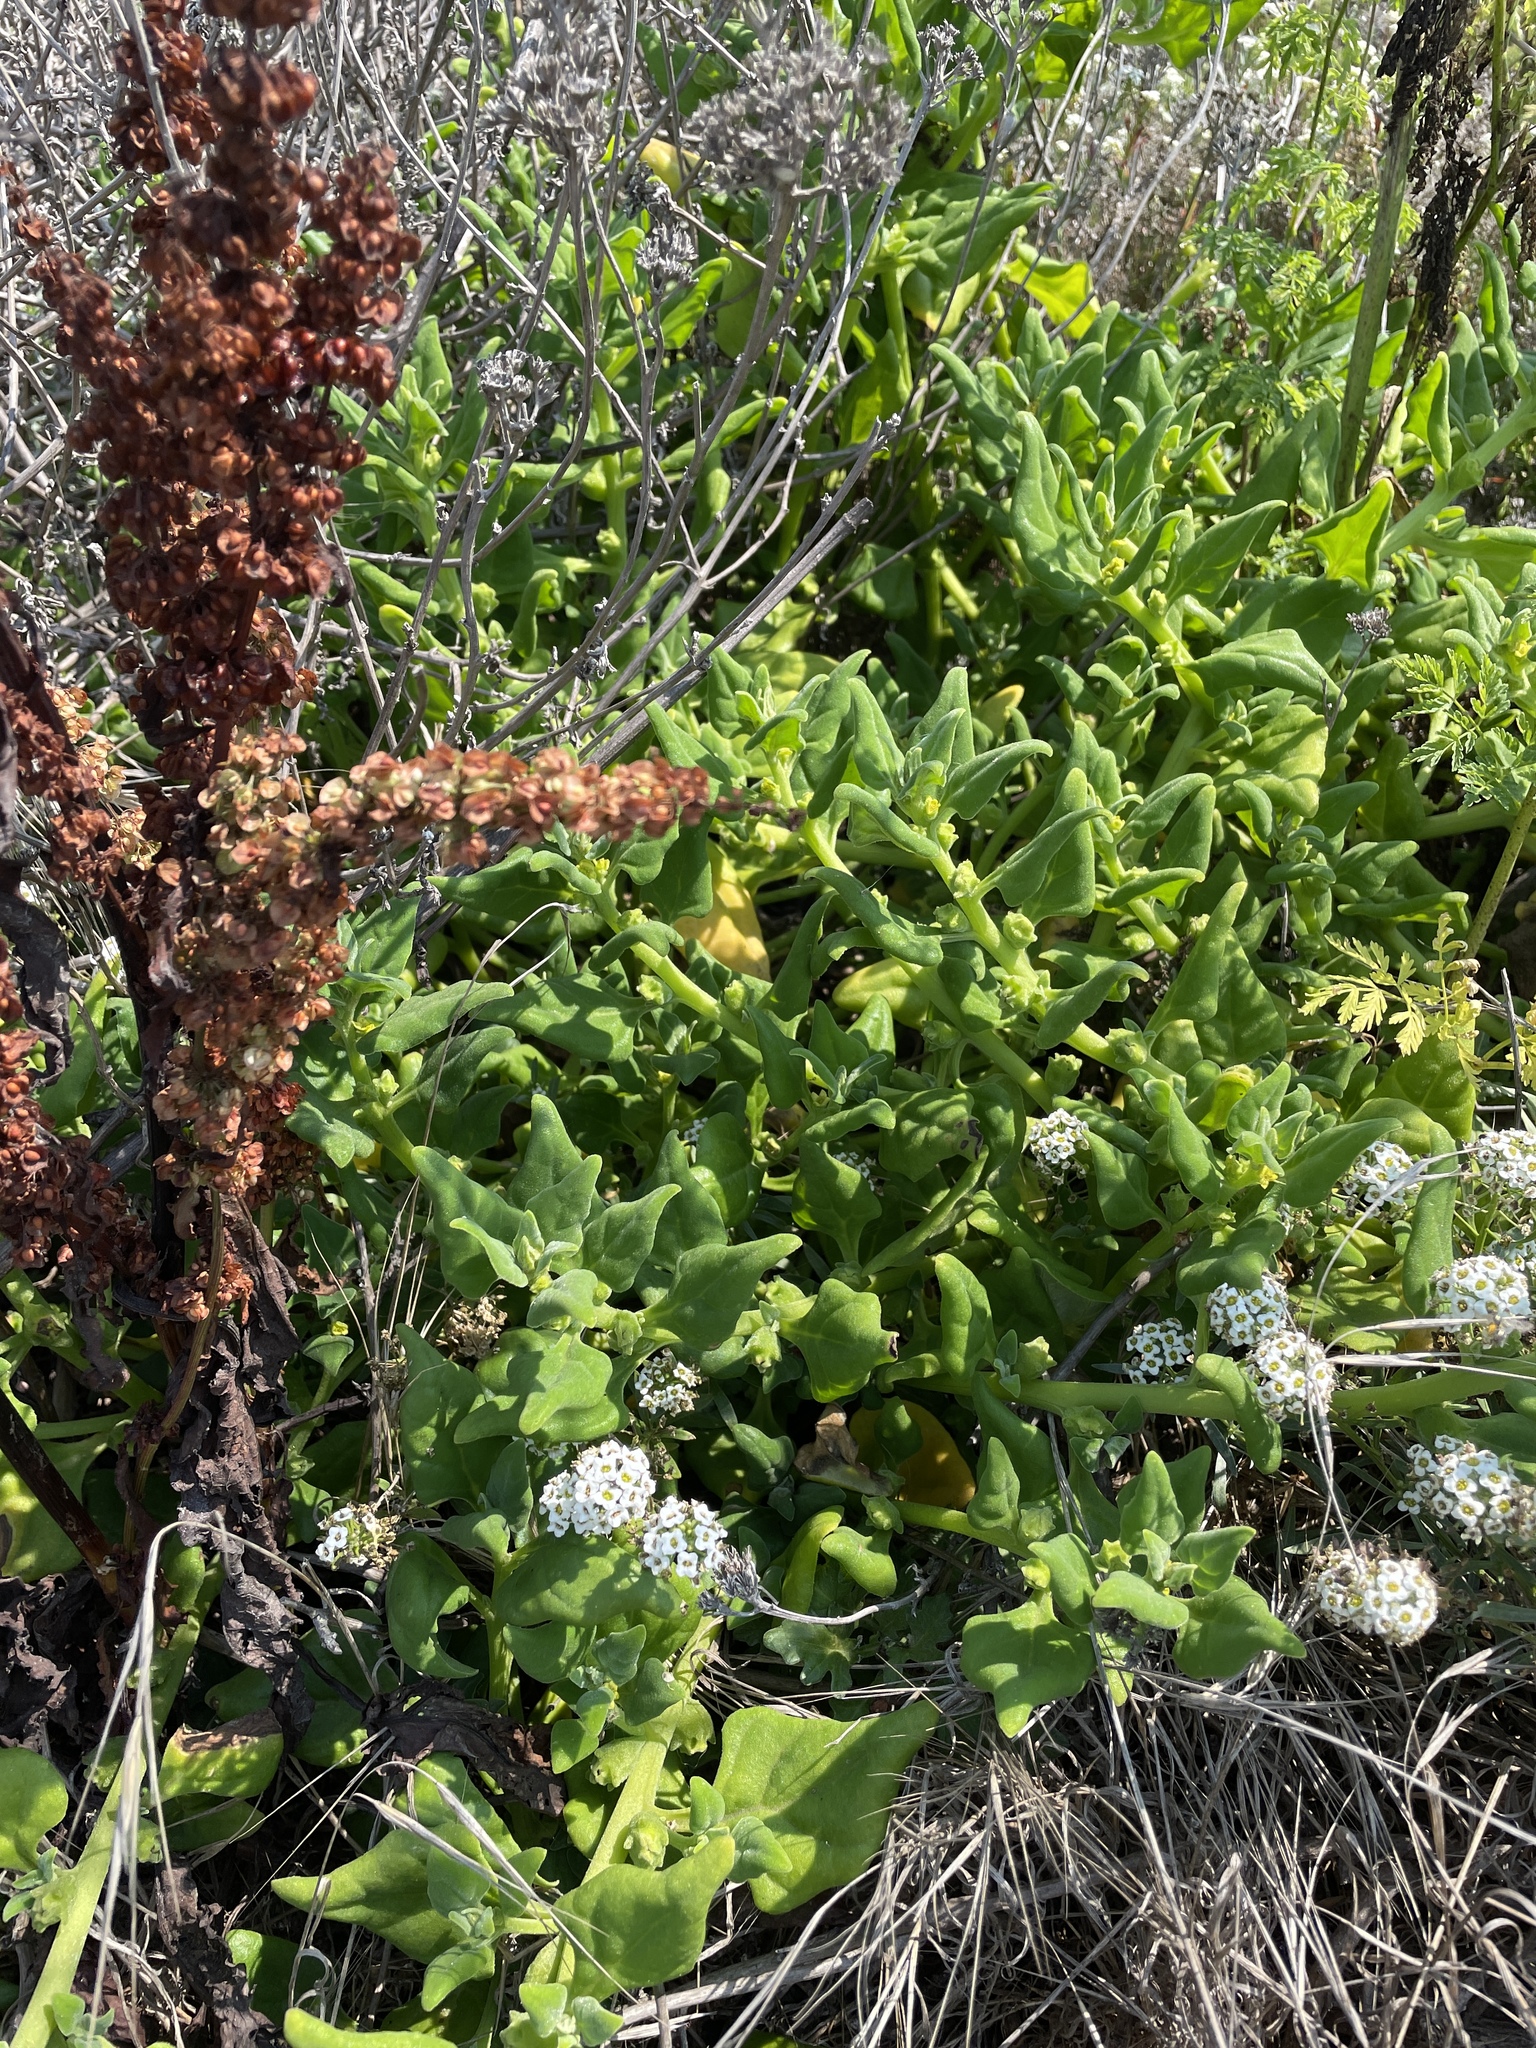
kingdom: Plantae
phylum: Tracheophyta
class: Magnoliopsida
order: Caryophyllales
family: Aizoaceae
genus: Tetragonia
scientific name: Tetragonia tetragonoides
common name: New zealand-spinach
